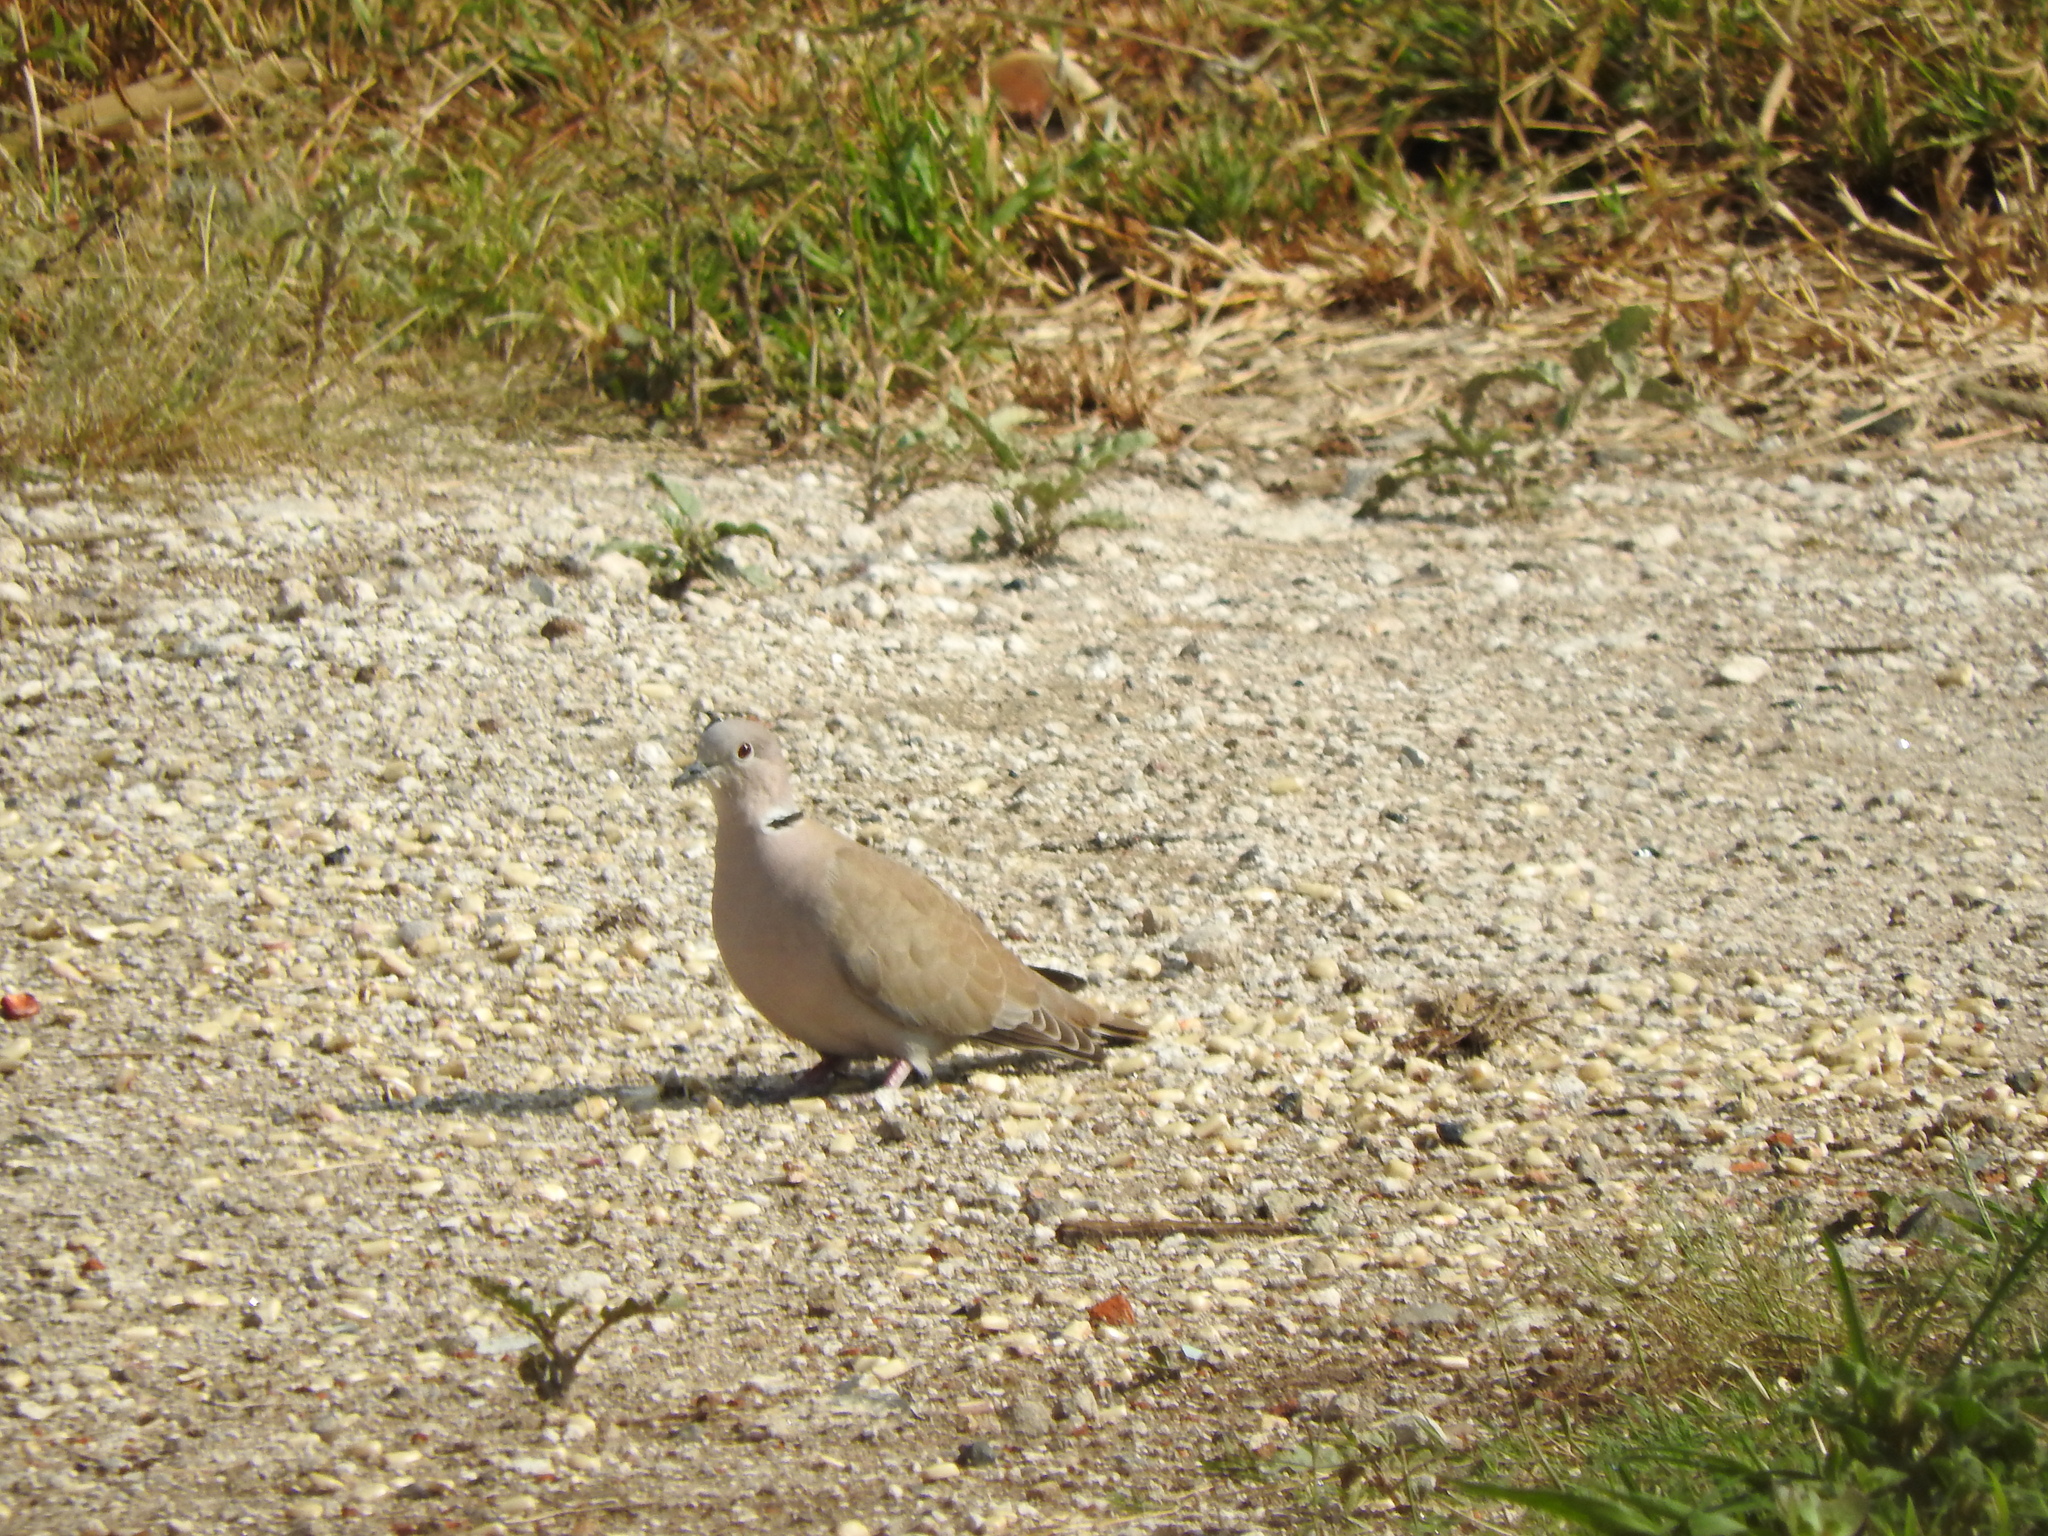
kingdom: Animalia
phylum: Chordata
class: Aves
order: Columbiformes
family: Columbidae
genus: Streptopelia
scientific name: Streptopelia decaocto
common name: Eurasian collared dove
